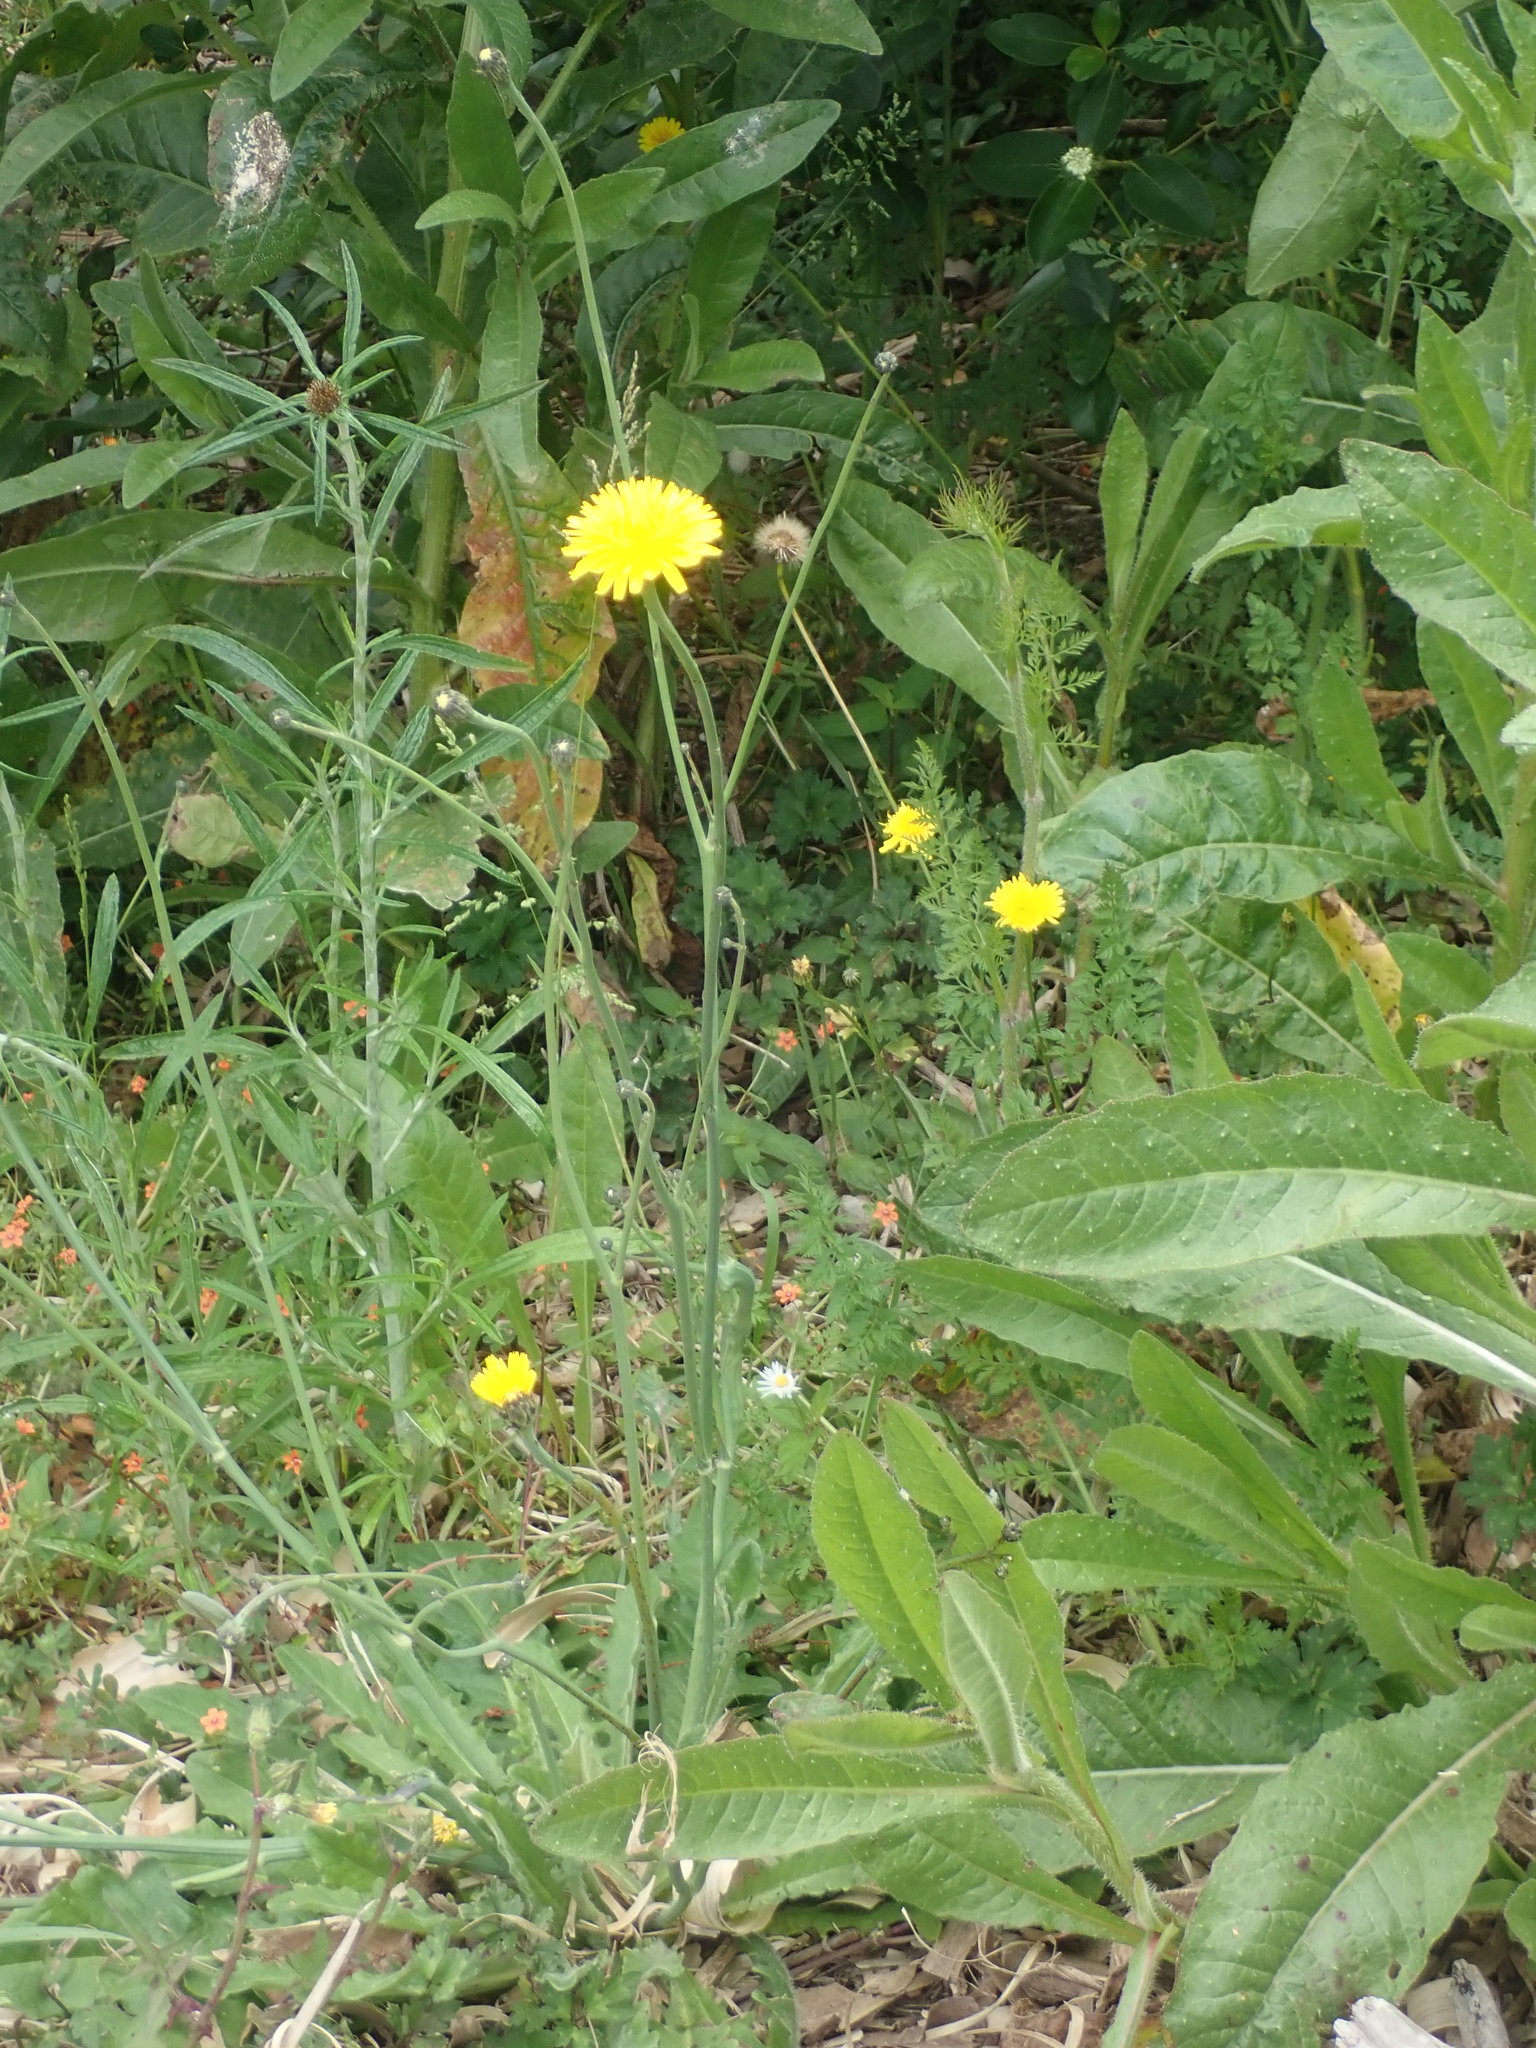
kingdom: Plantae
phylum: Tracheophyta
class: Magnoliopsida
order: Asterales
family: Asteraceae
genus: Helminthotheca
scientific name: Helminthotheca echioides
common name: Ox-tongue
